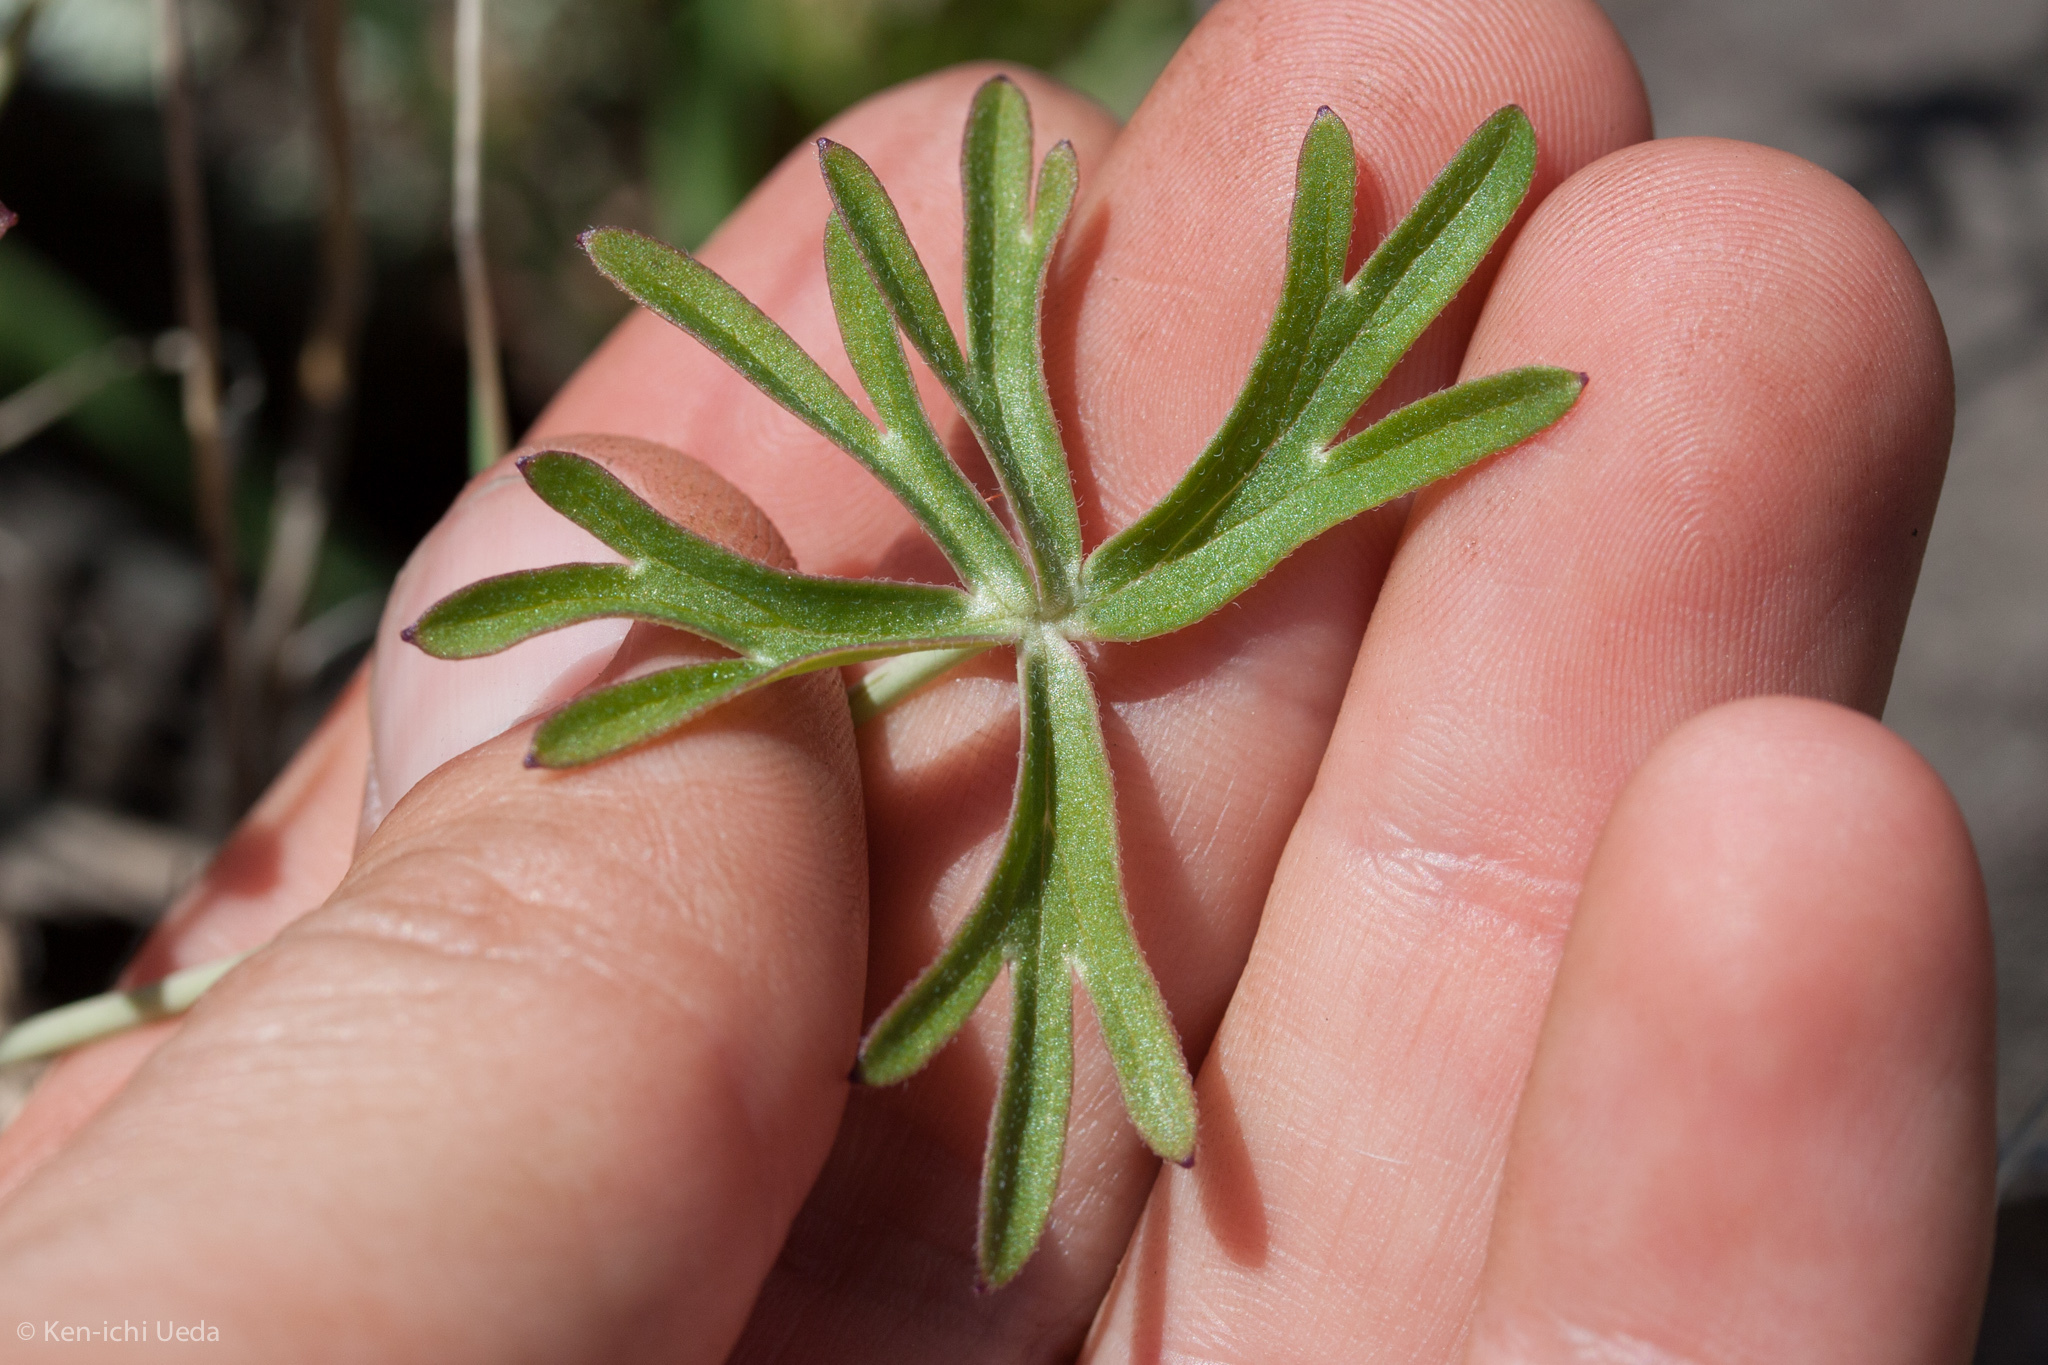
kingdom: Plantae
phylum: Tracheophyta
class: Magnoliopsida
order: Ranunculales
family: Ranunculaceae
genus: Delphinium
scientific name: Delphinium patens
